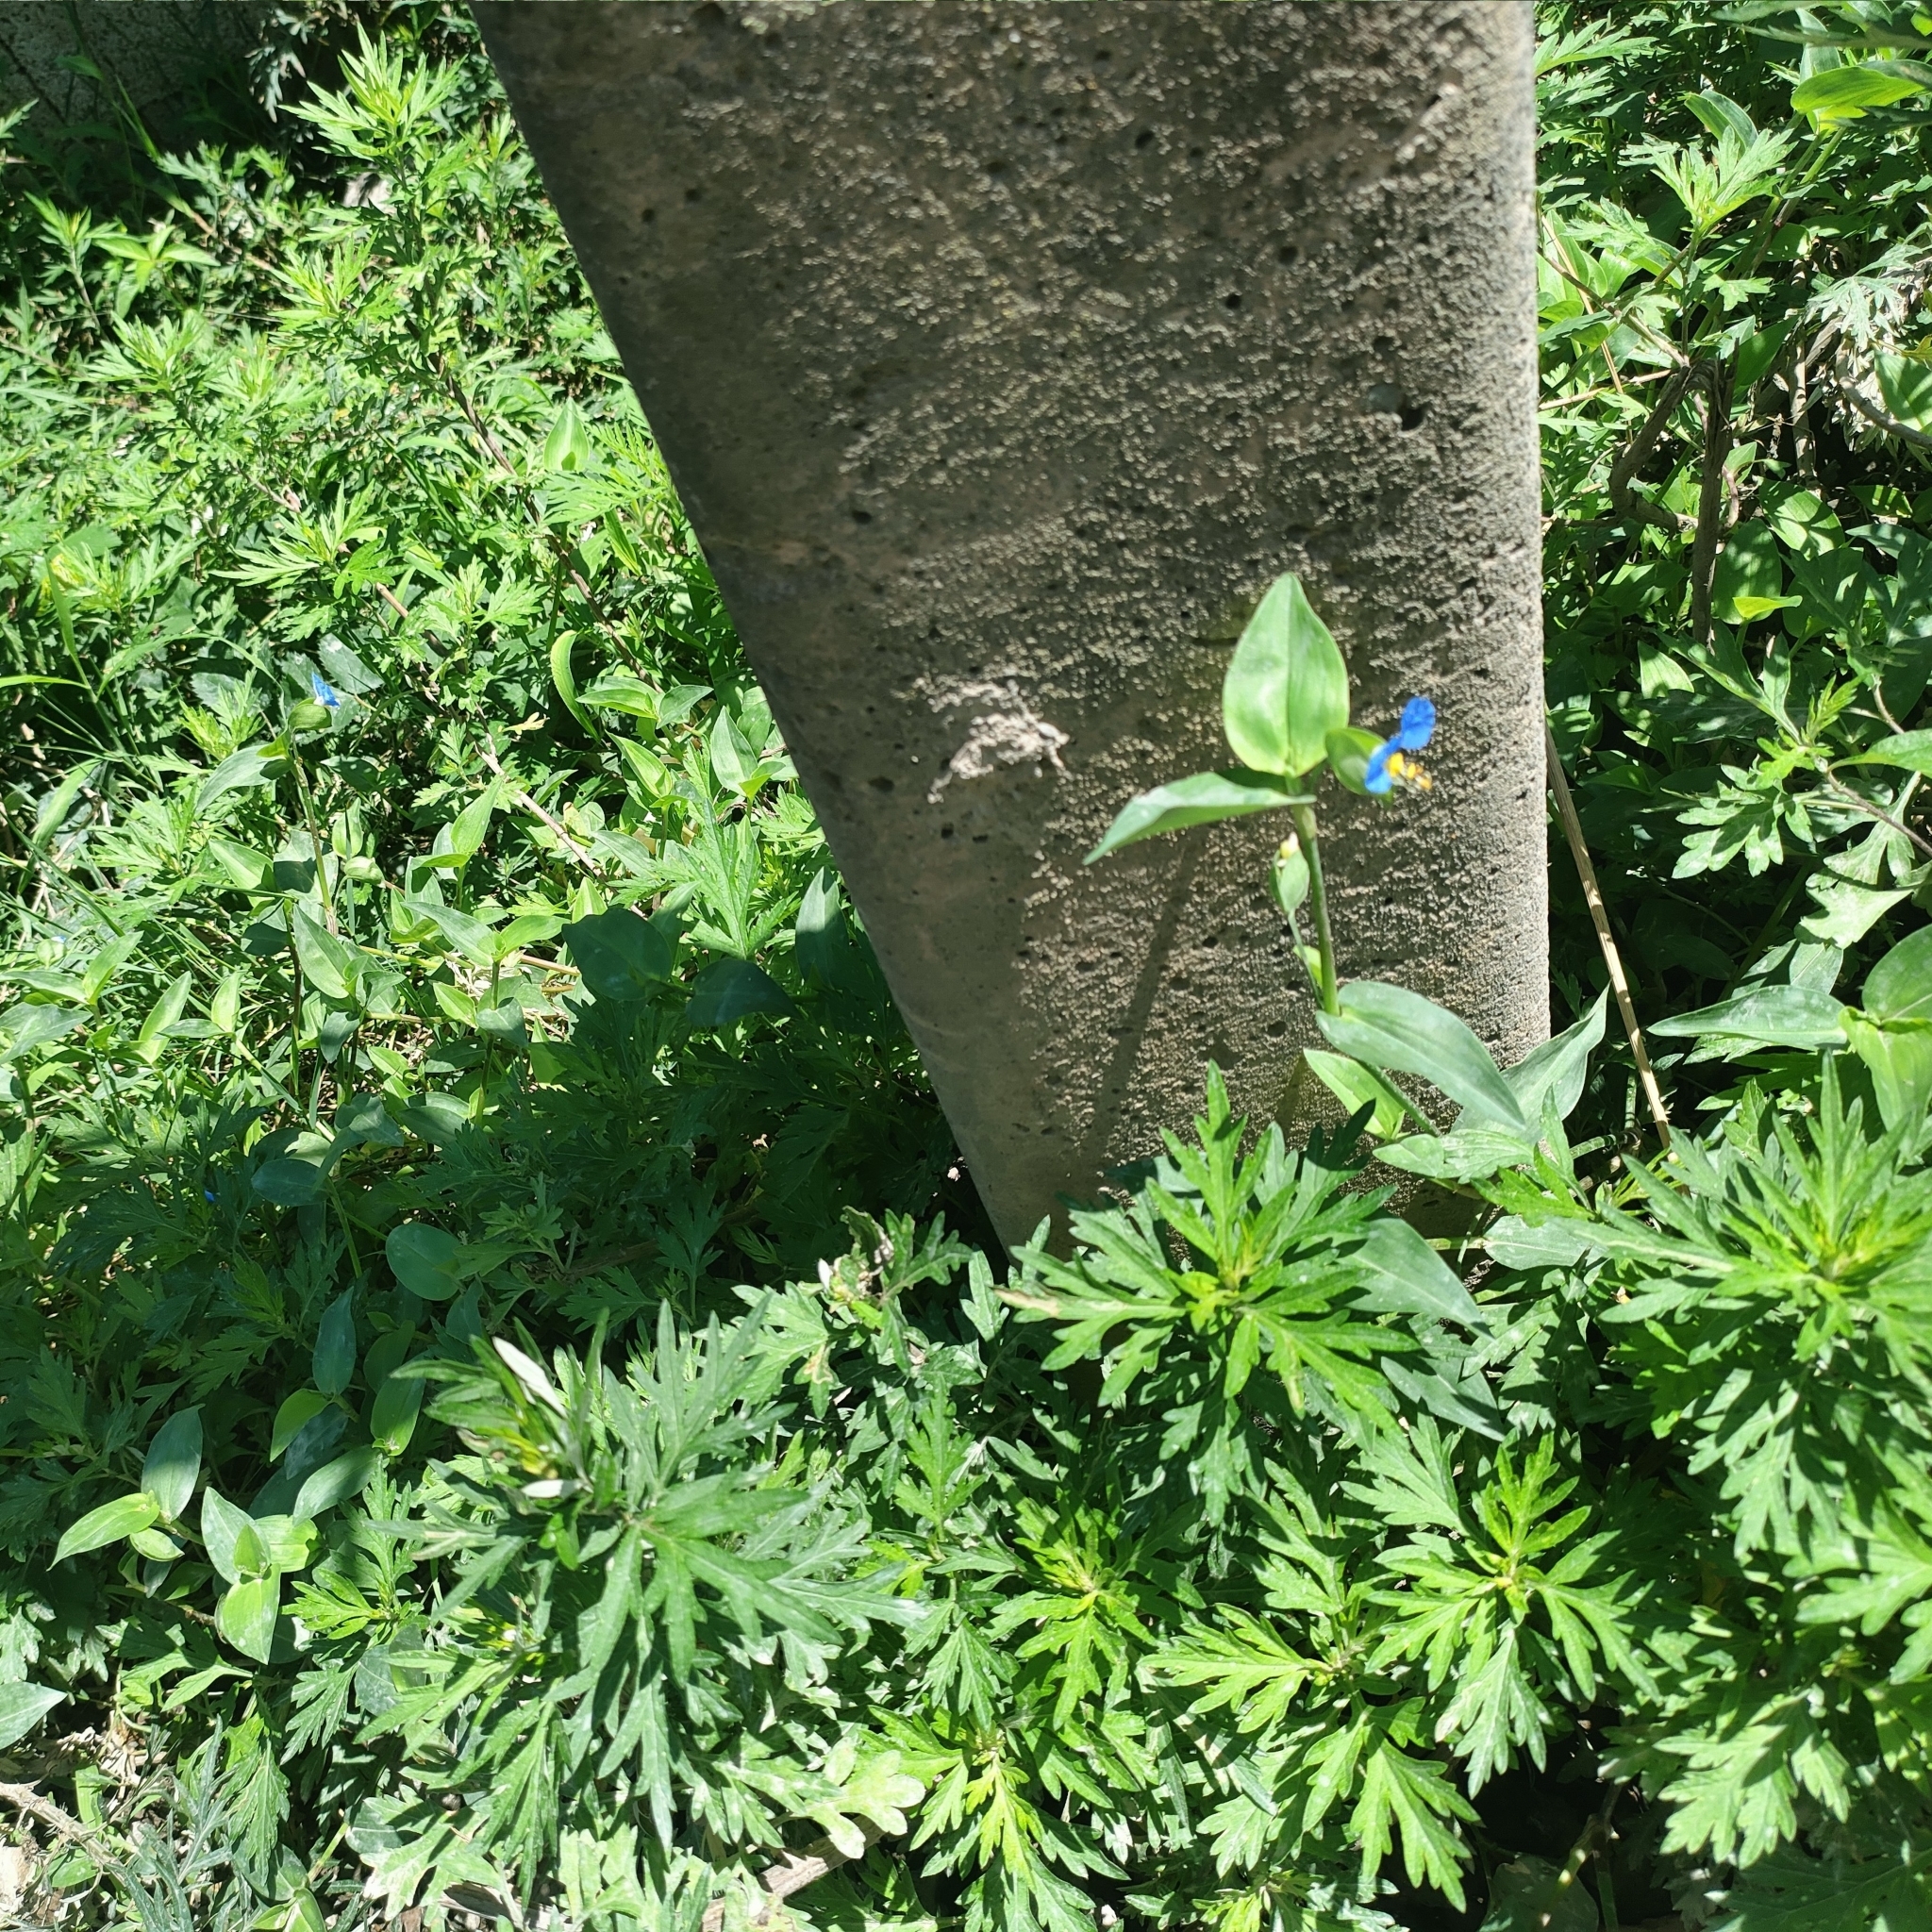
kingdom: Plantae
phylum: Tracheophyta
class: Liliopsida
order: Commelinales
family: Commelinaceae
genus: Commelina
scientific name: Commelina communis
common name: Asiatic dayflower
